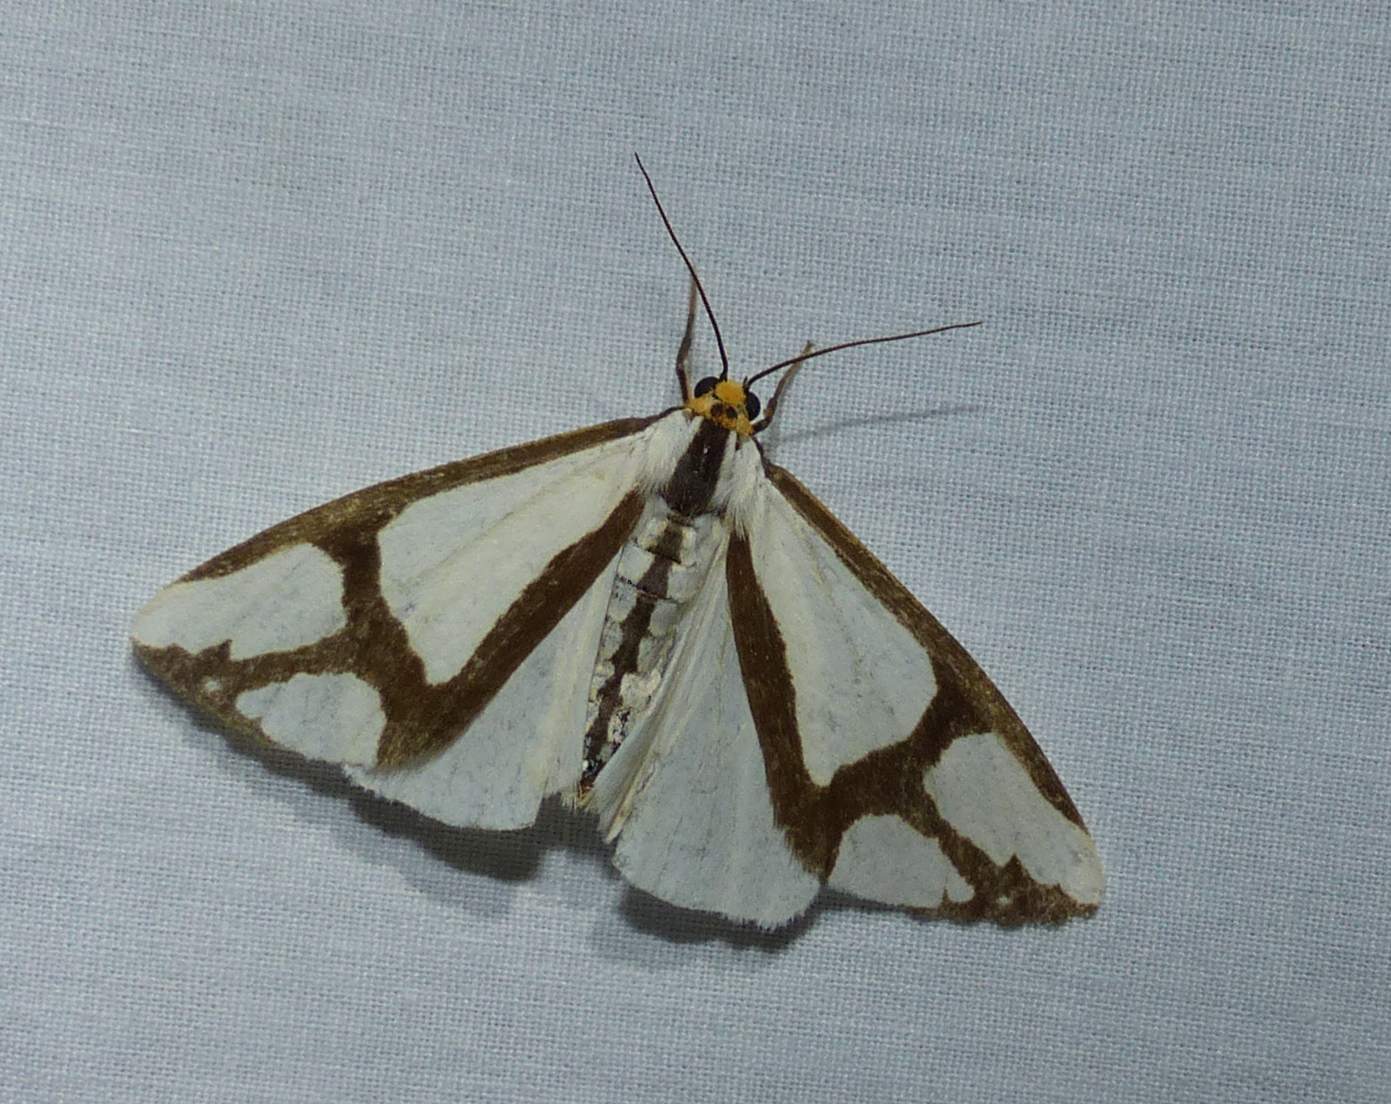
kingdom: Animalia
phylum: Arthropoda
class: Insecta
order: Lepidoptera
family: Erebidae
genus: Haploa
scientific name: Haploa contigua
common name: Neighbor moth
